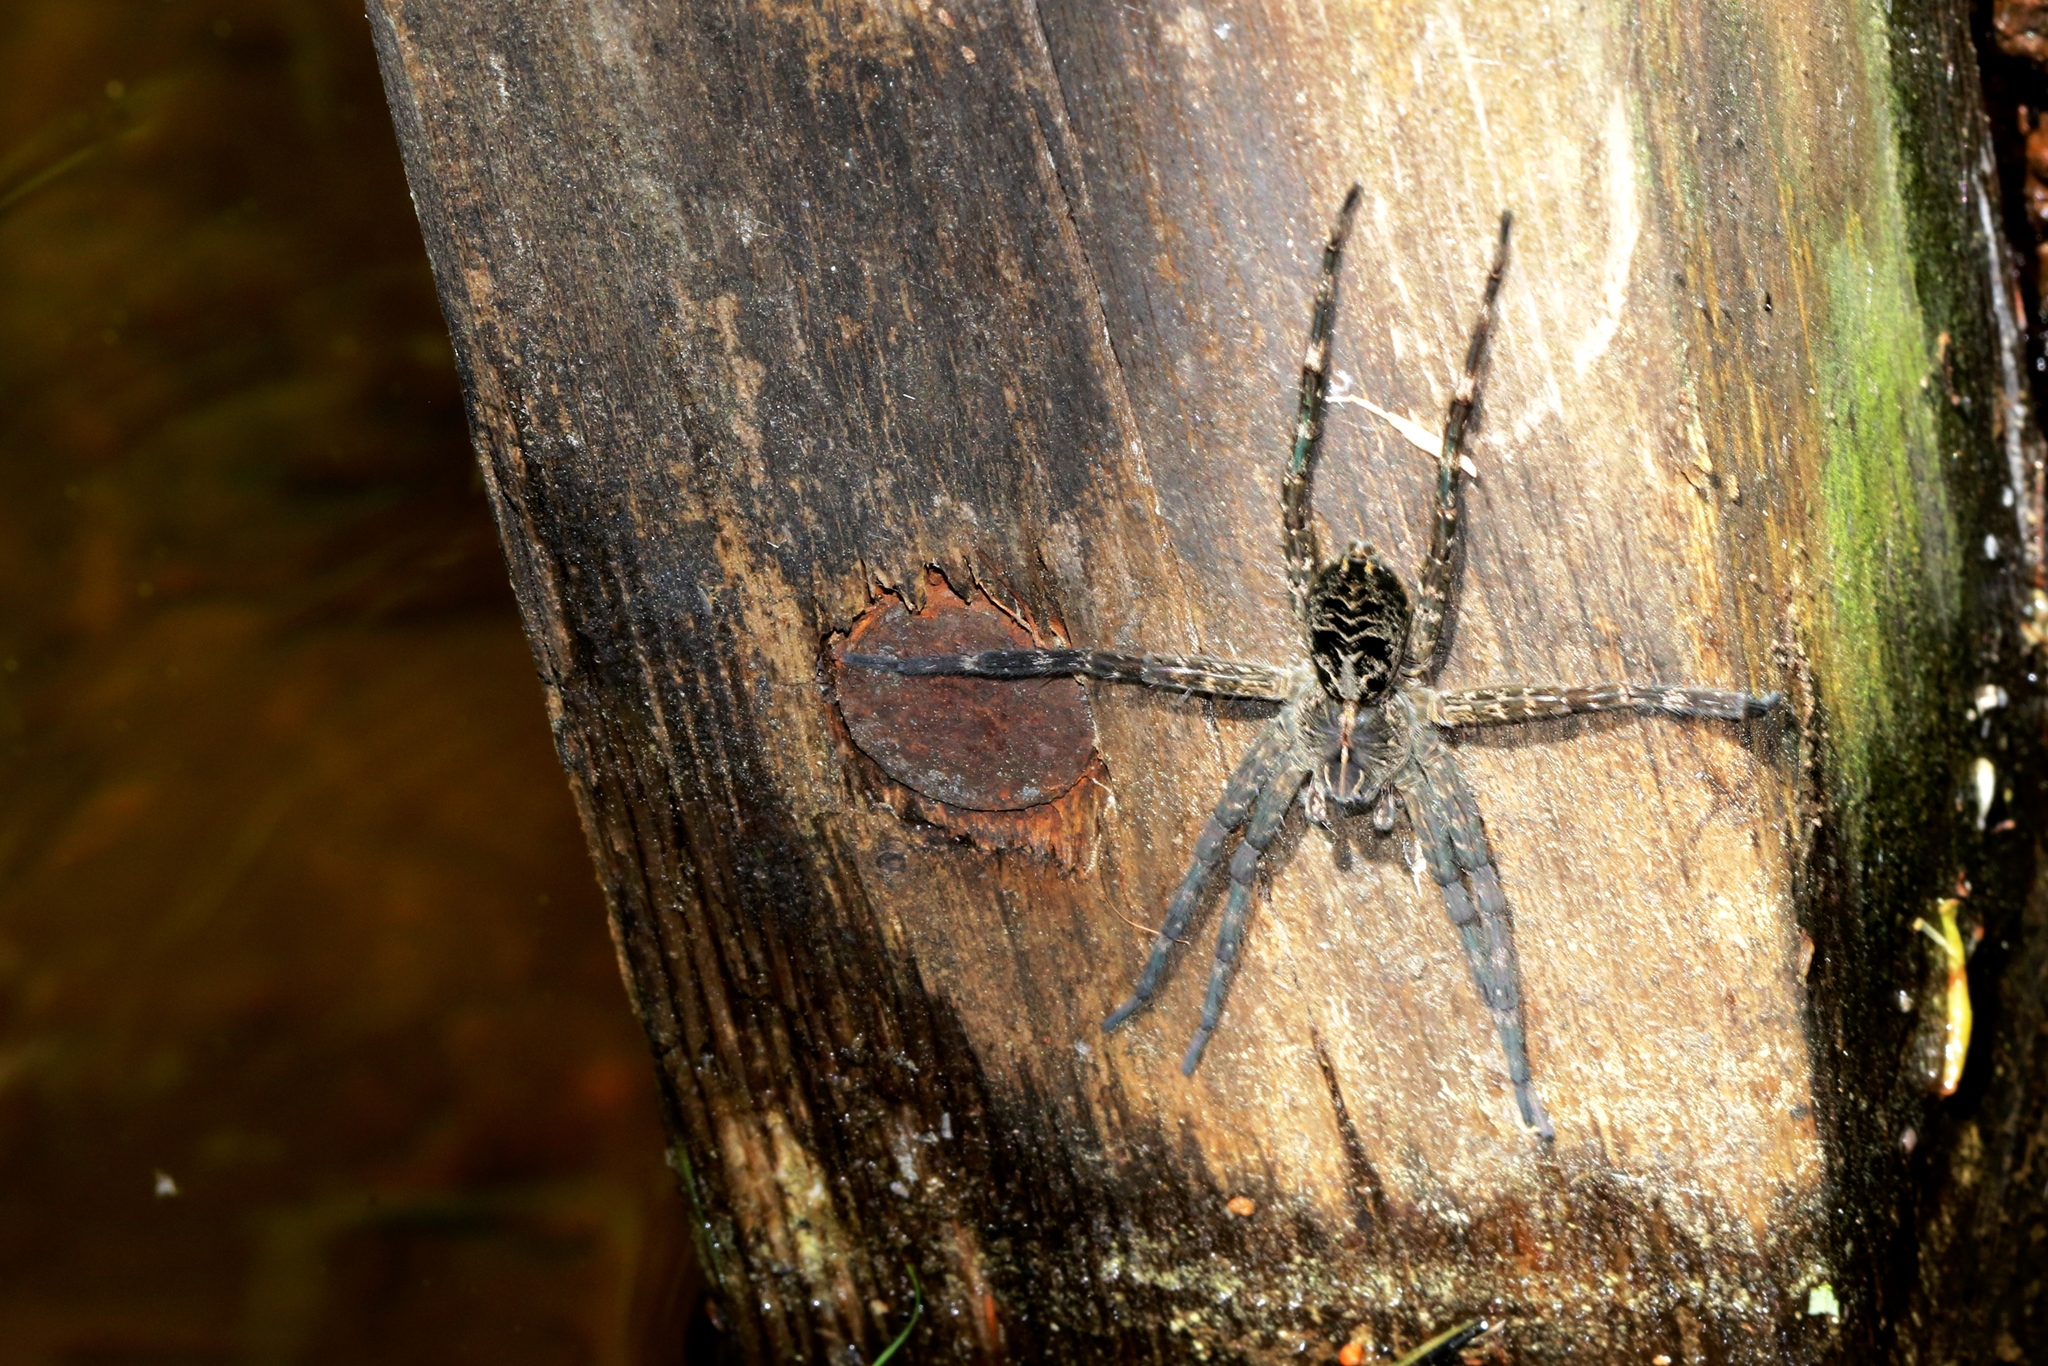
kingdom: Animalia
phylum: Arthropoda
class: Arachnida
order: Araneae
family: Pisauridae
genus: Dolomedes
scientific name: Dolomedes scriptus
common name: Striped fishing spider
